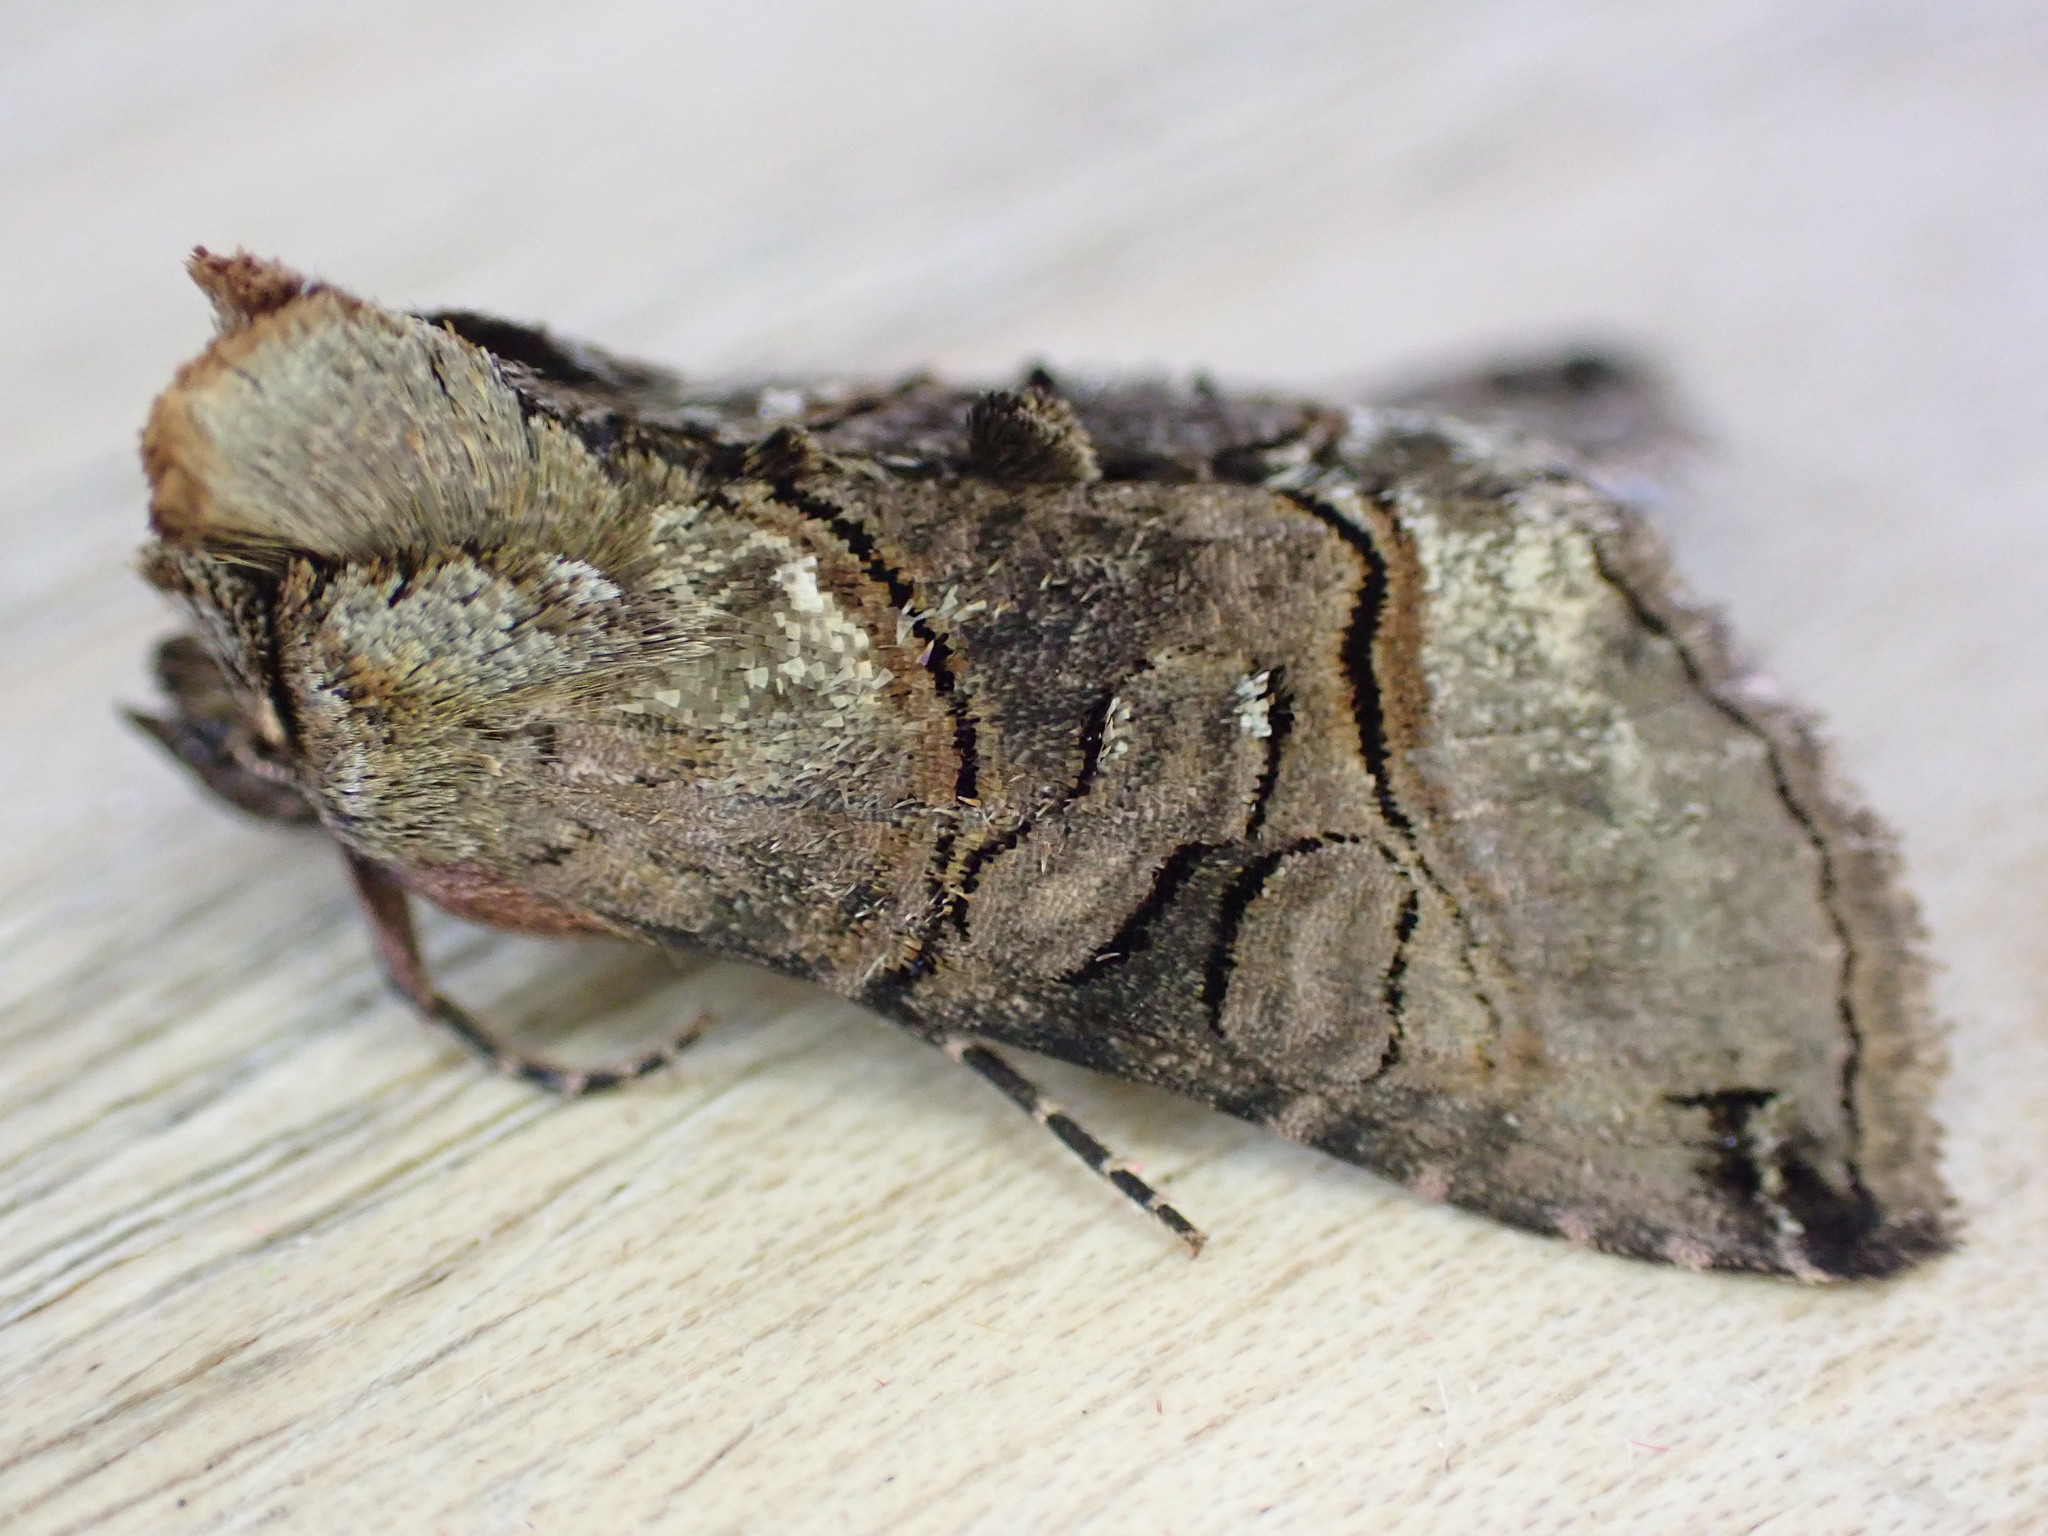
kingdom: Animalia
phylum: Arthropoda
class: Insecta
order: Lepidoptera
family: Noctuidae
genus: Abrostola
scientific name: Abrostola tripartita
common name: Spectacle
